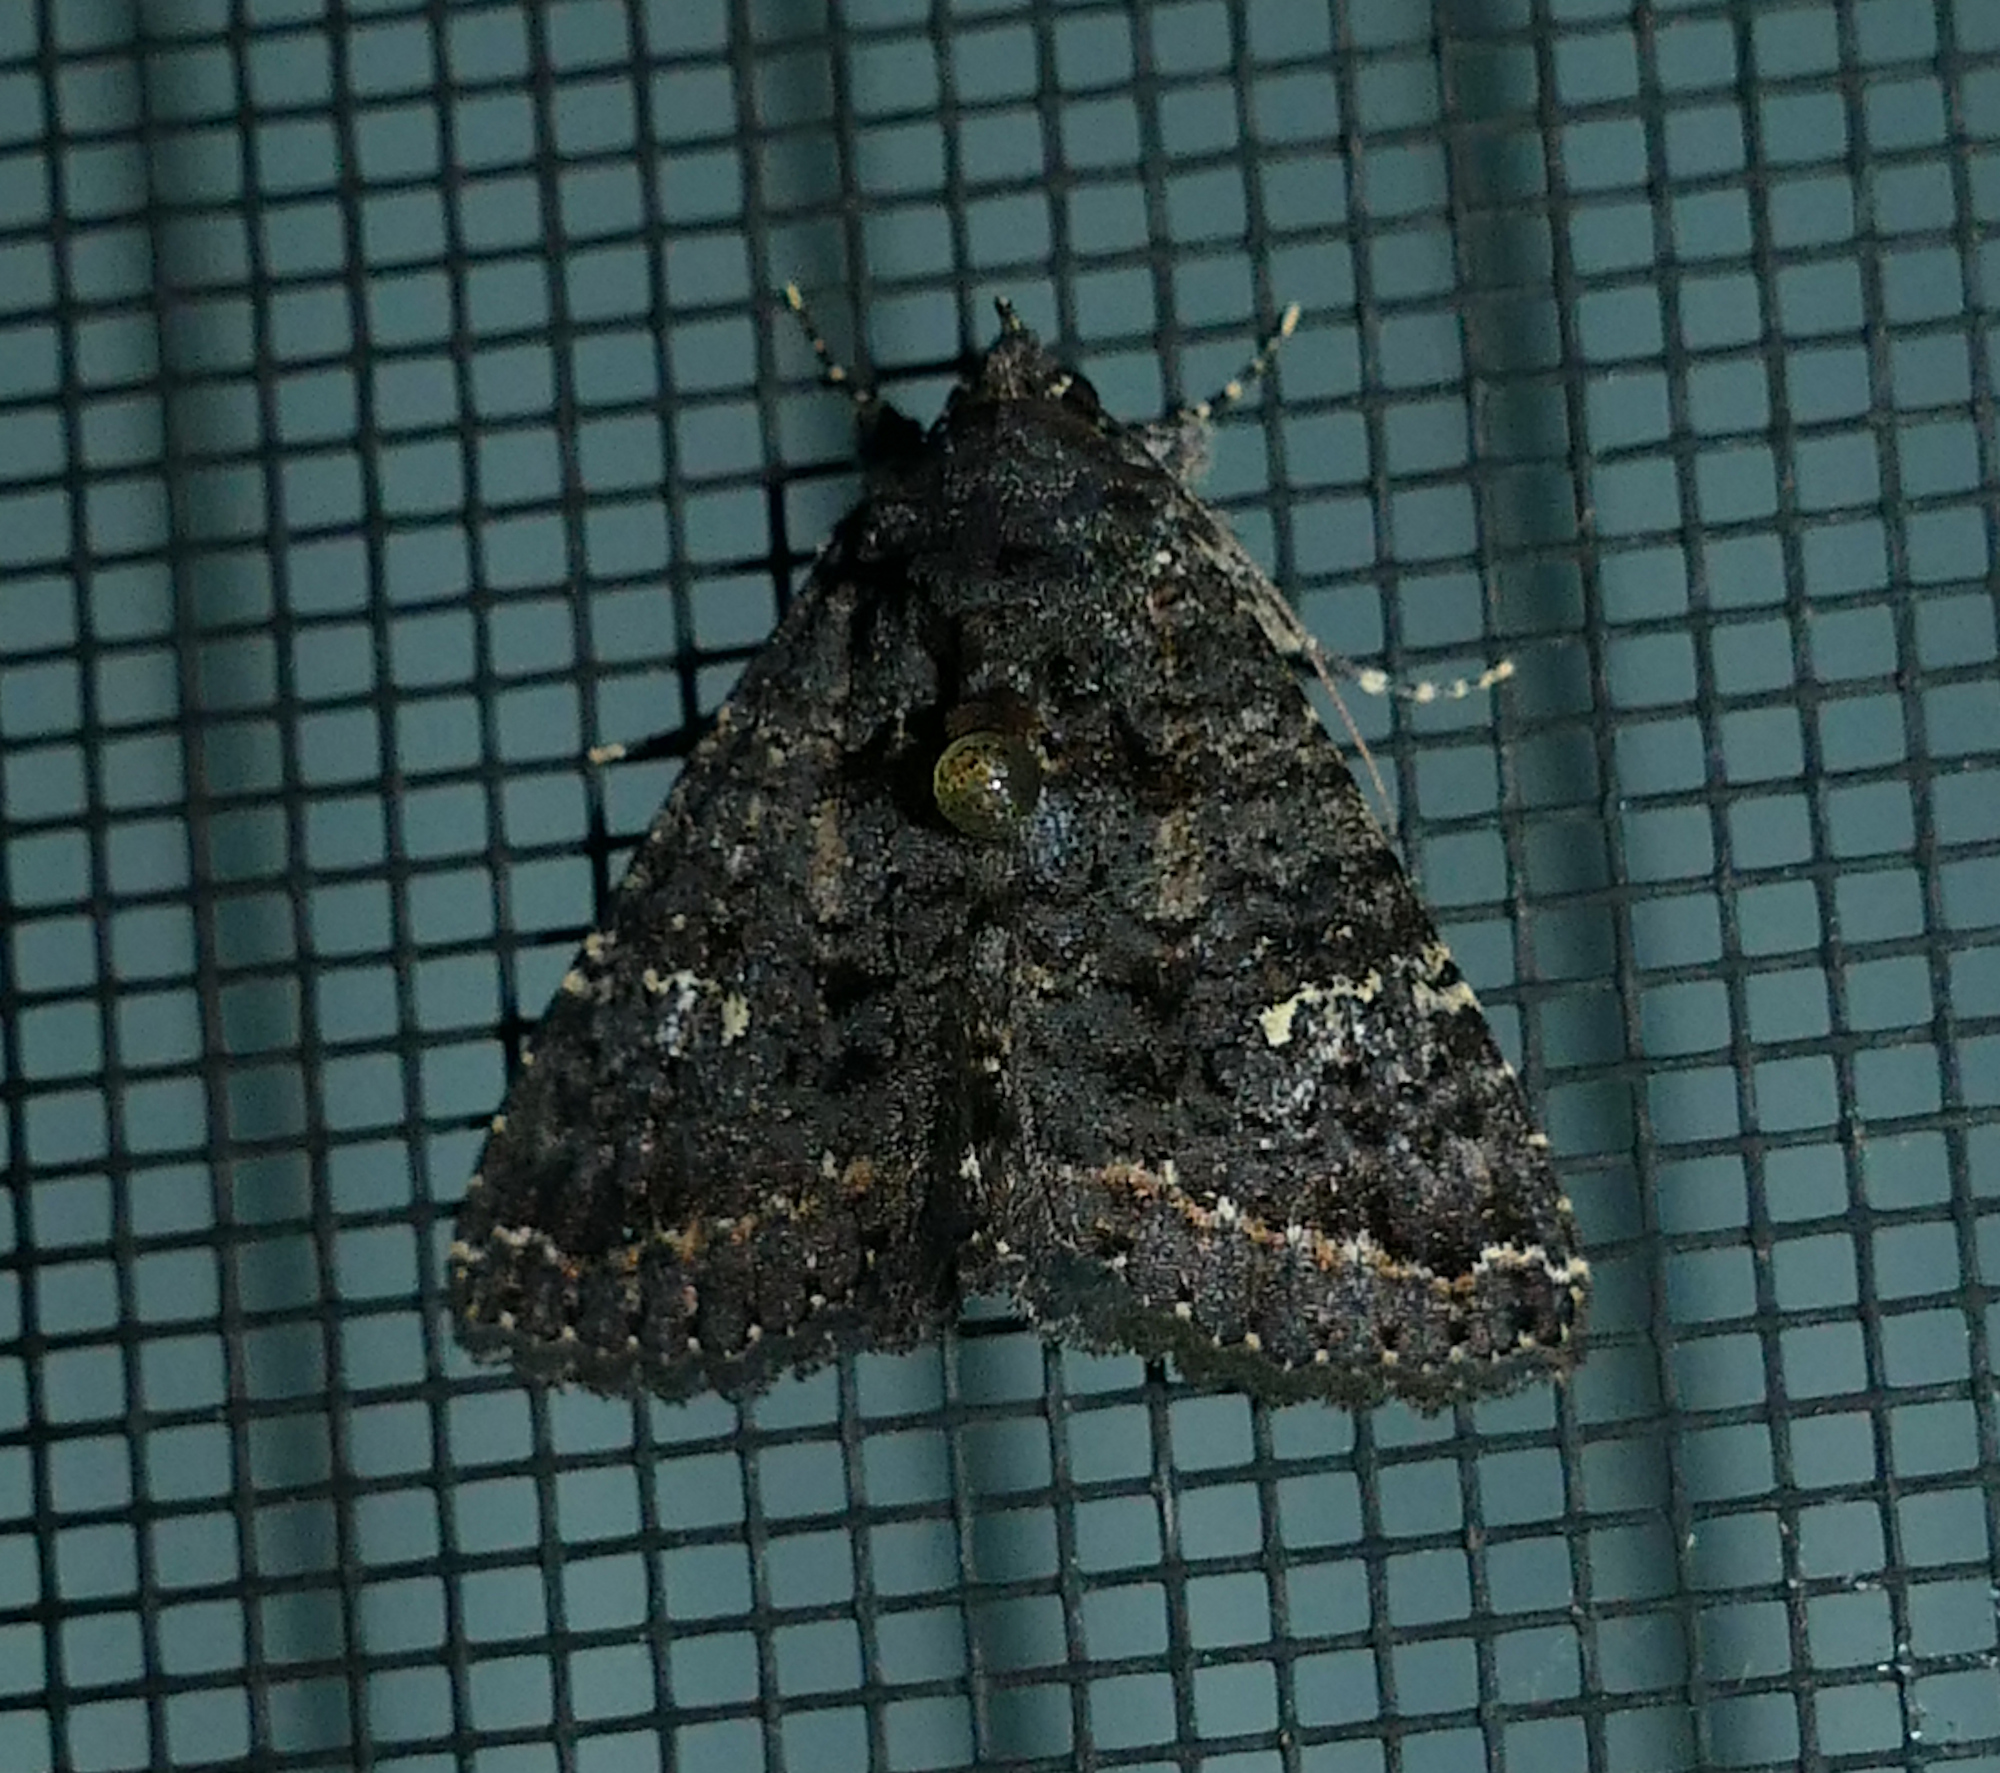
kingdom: Animalia
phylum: Arthropoda
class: Insecta
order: Lepidoptera
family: Erebidae
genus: Coxina
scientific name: Coxina cinctipalpis
